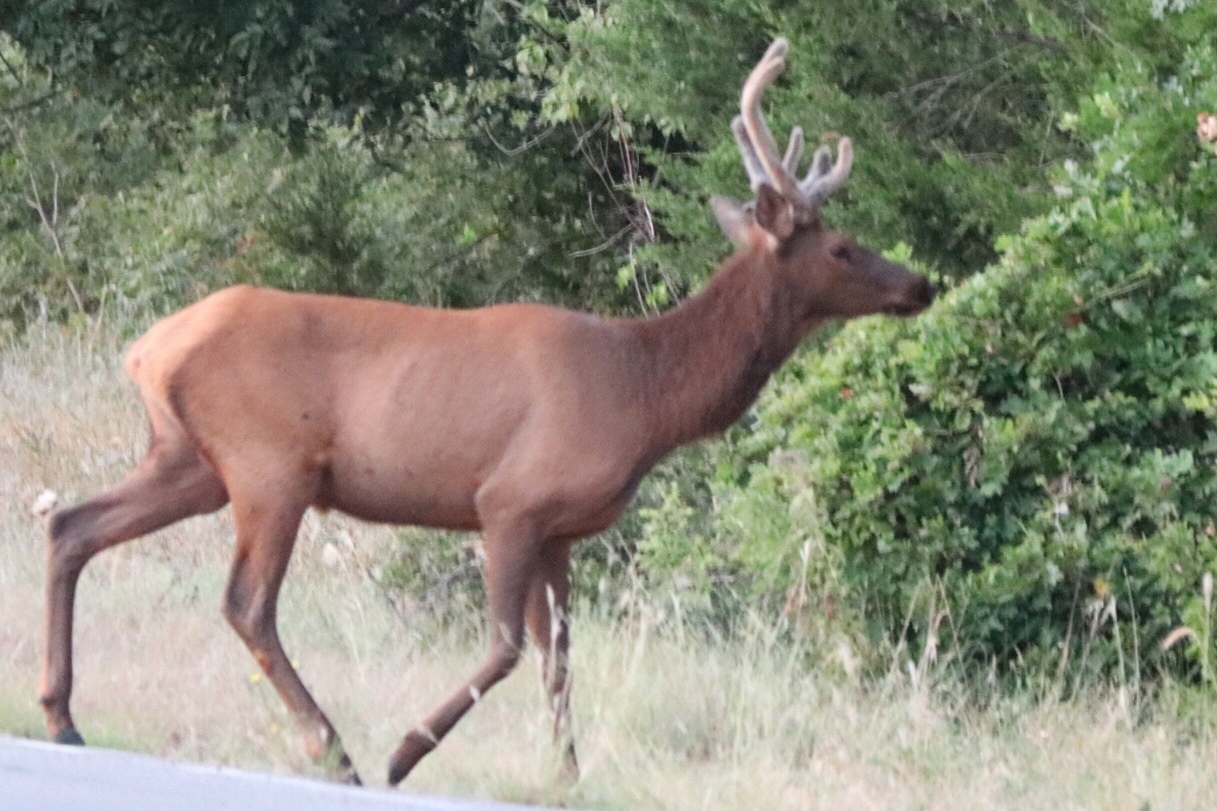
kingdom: Animalia
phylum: Chordata
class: Mammalia
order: Artiodactyla
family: Cervidae
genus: Cervus
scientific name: Cervus elaphus
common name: Red deer
